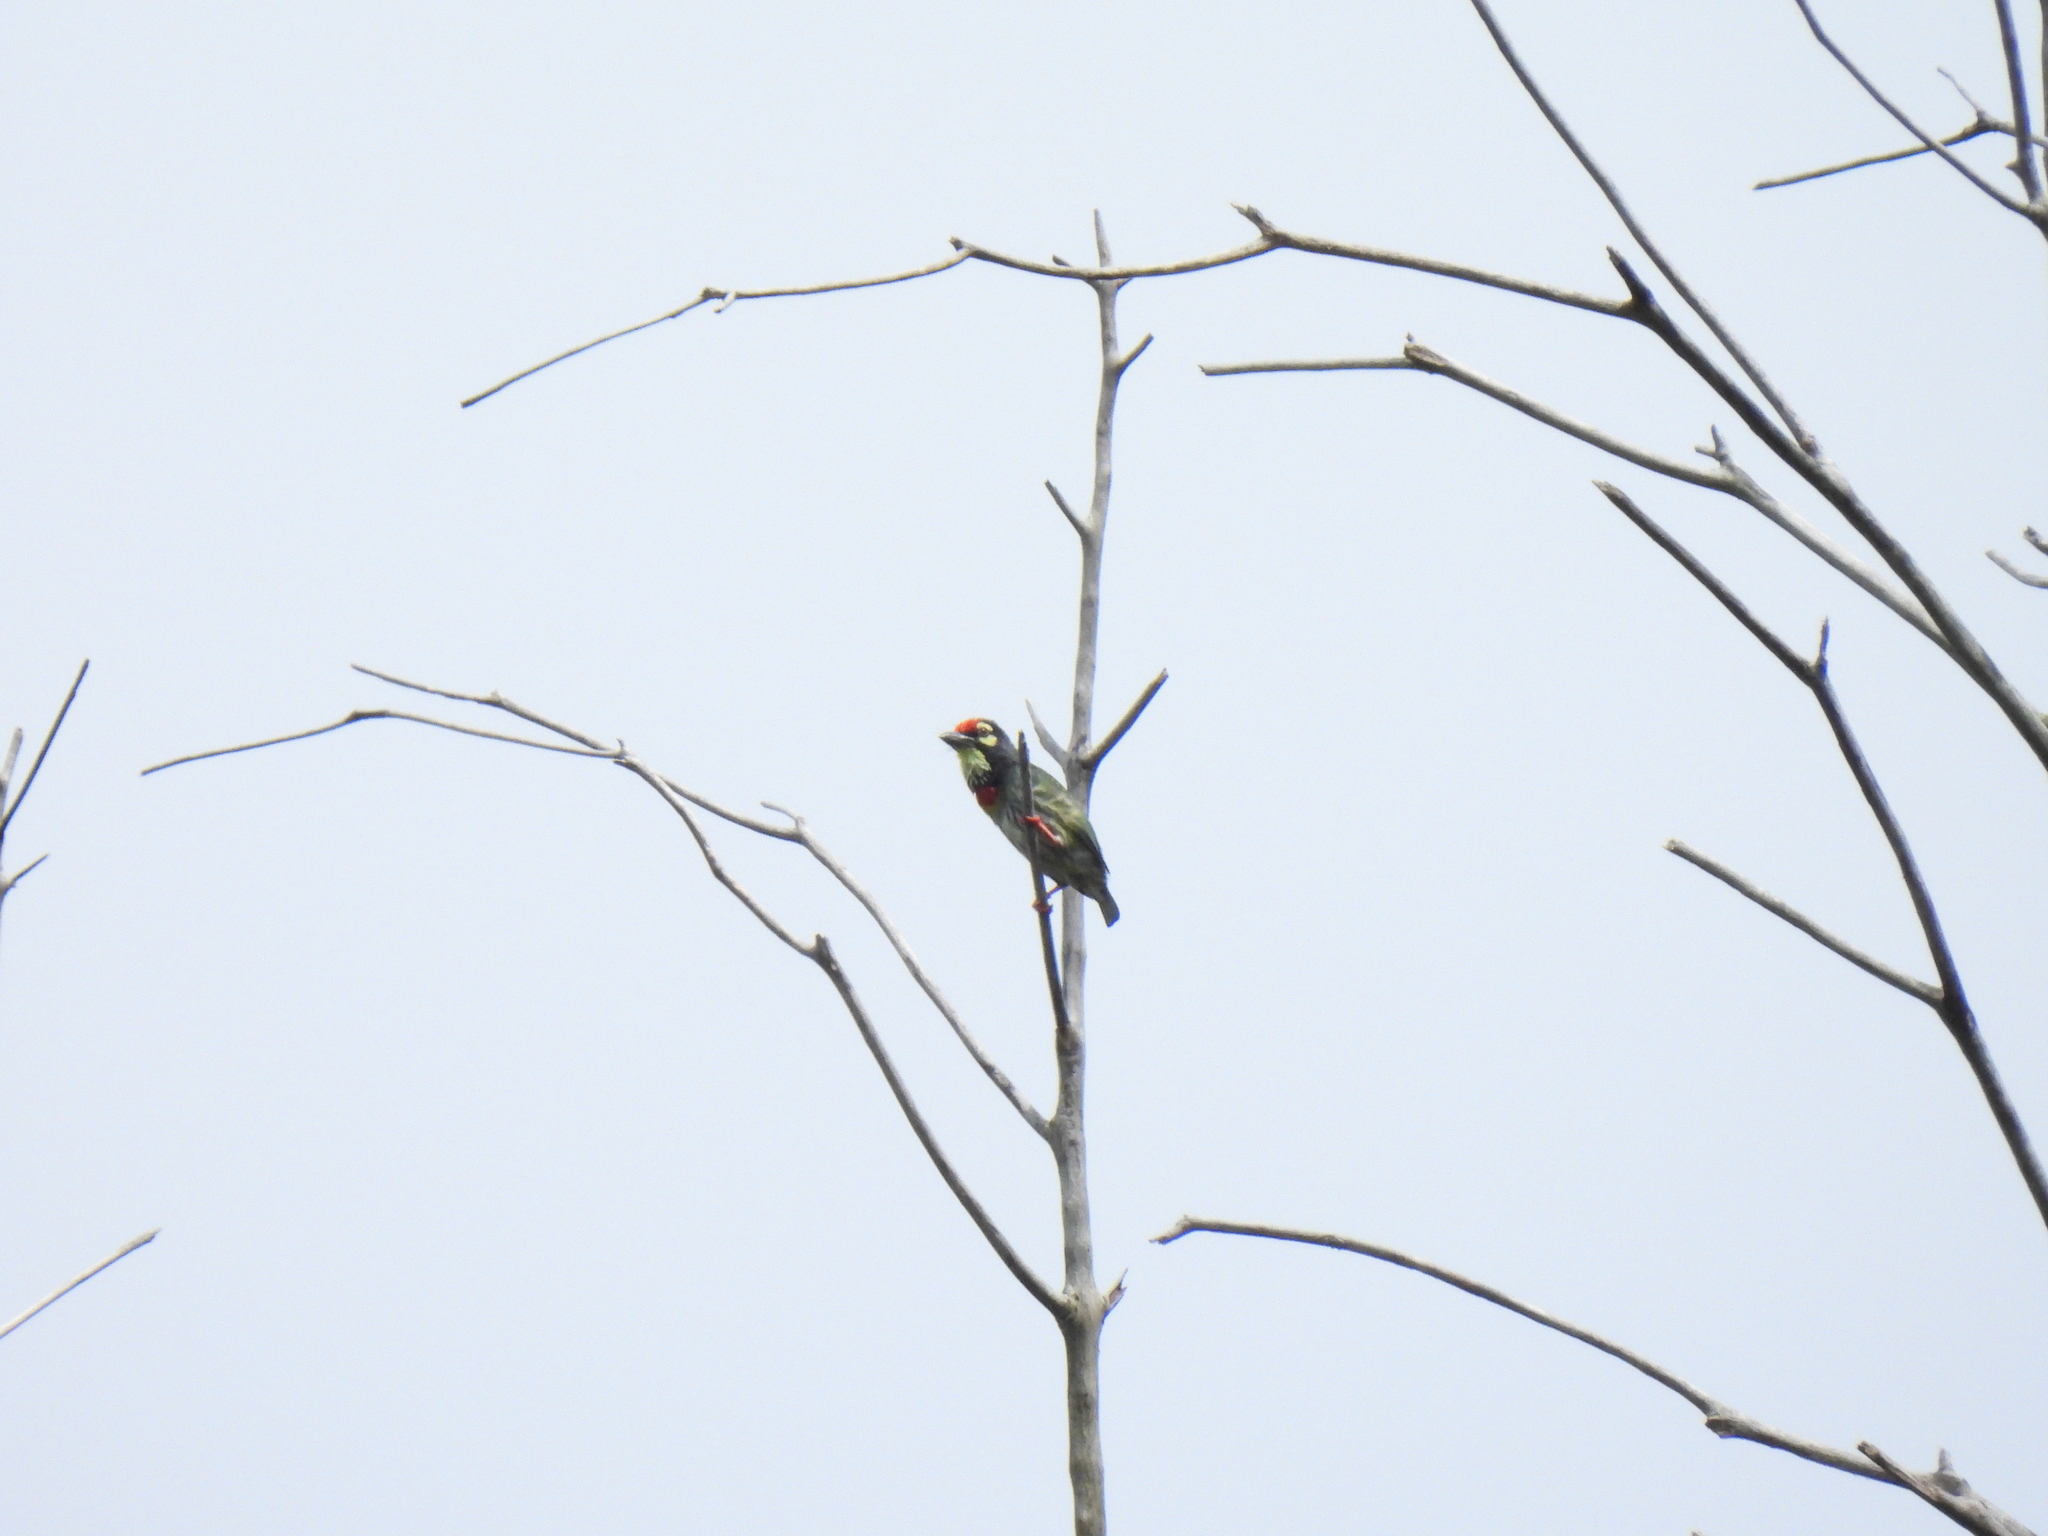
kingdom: Animalia
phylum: Chordata
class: Aves
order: Piciformes
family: Megalaimidae
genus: Psilopogon
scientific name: Psilopogon haemacephalus
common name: Coppersmith barbet
